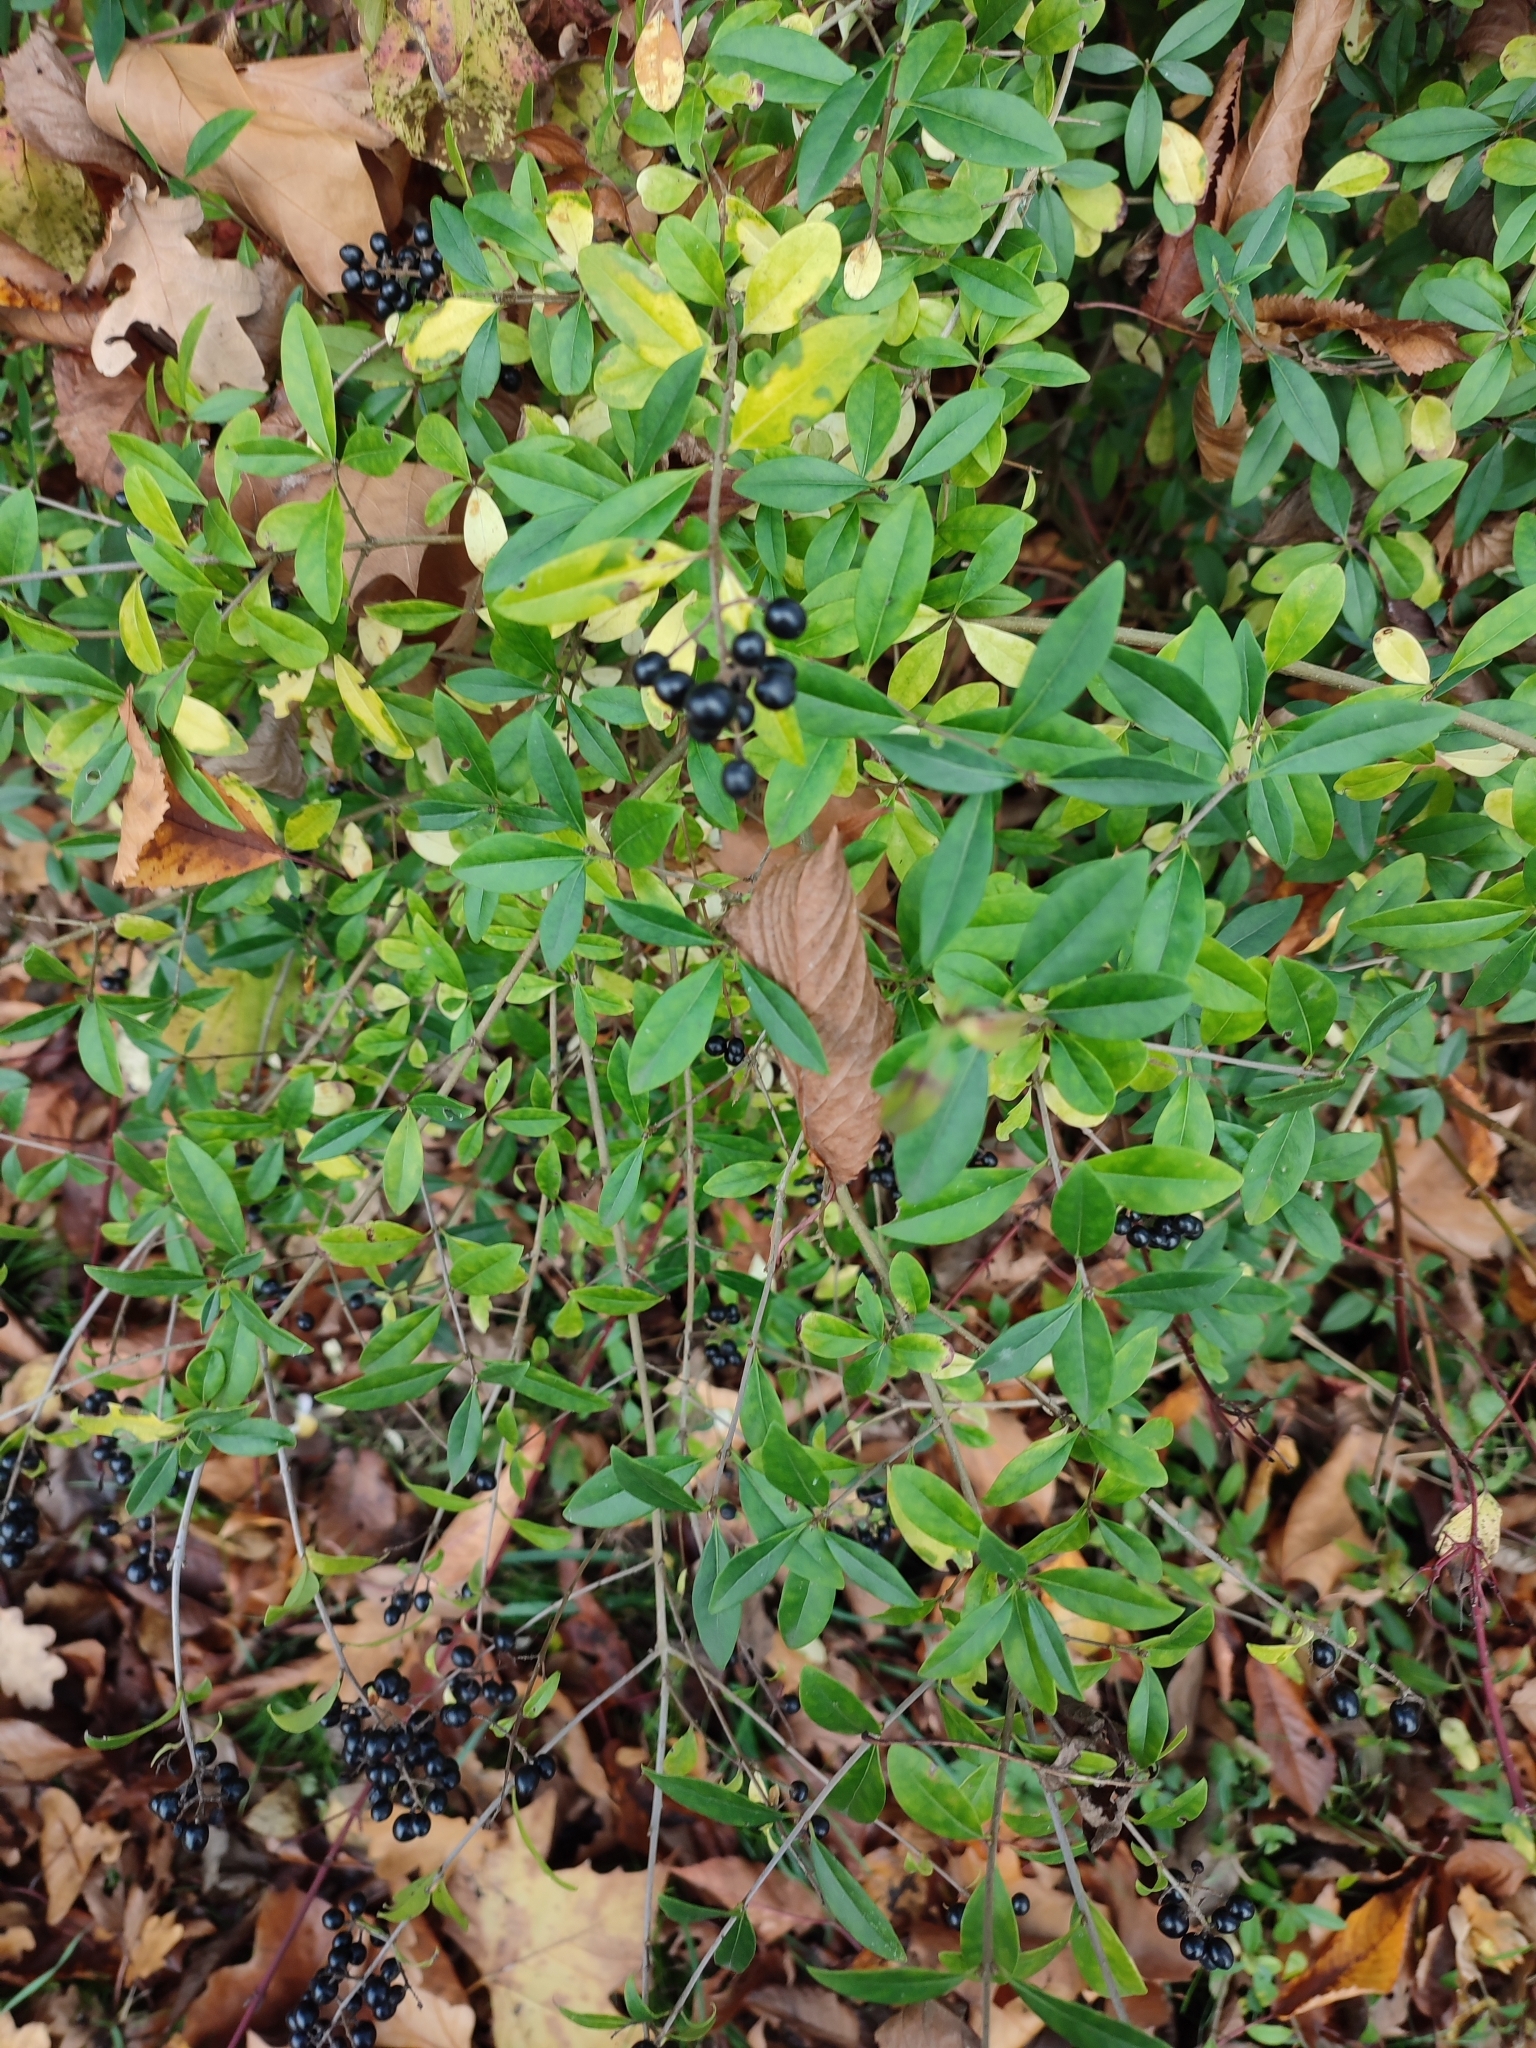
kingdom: Plantae
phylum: Tracheophyta
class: Magnoliopsida
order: Lamiales
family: Oleaceae
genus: Ligustrum
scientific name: Ligustrum vulgare
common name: Wild privet
